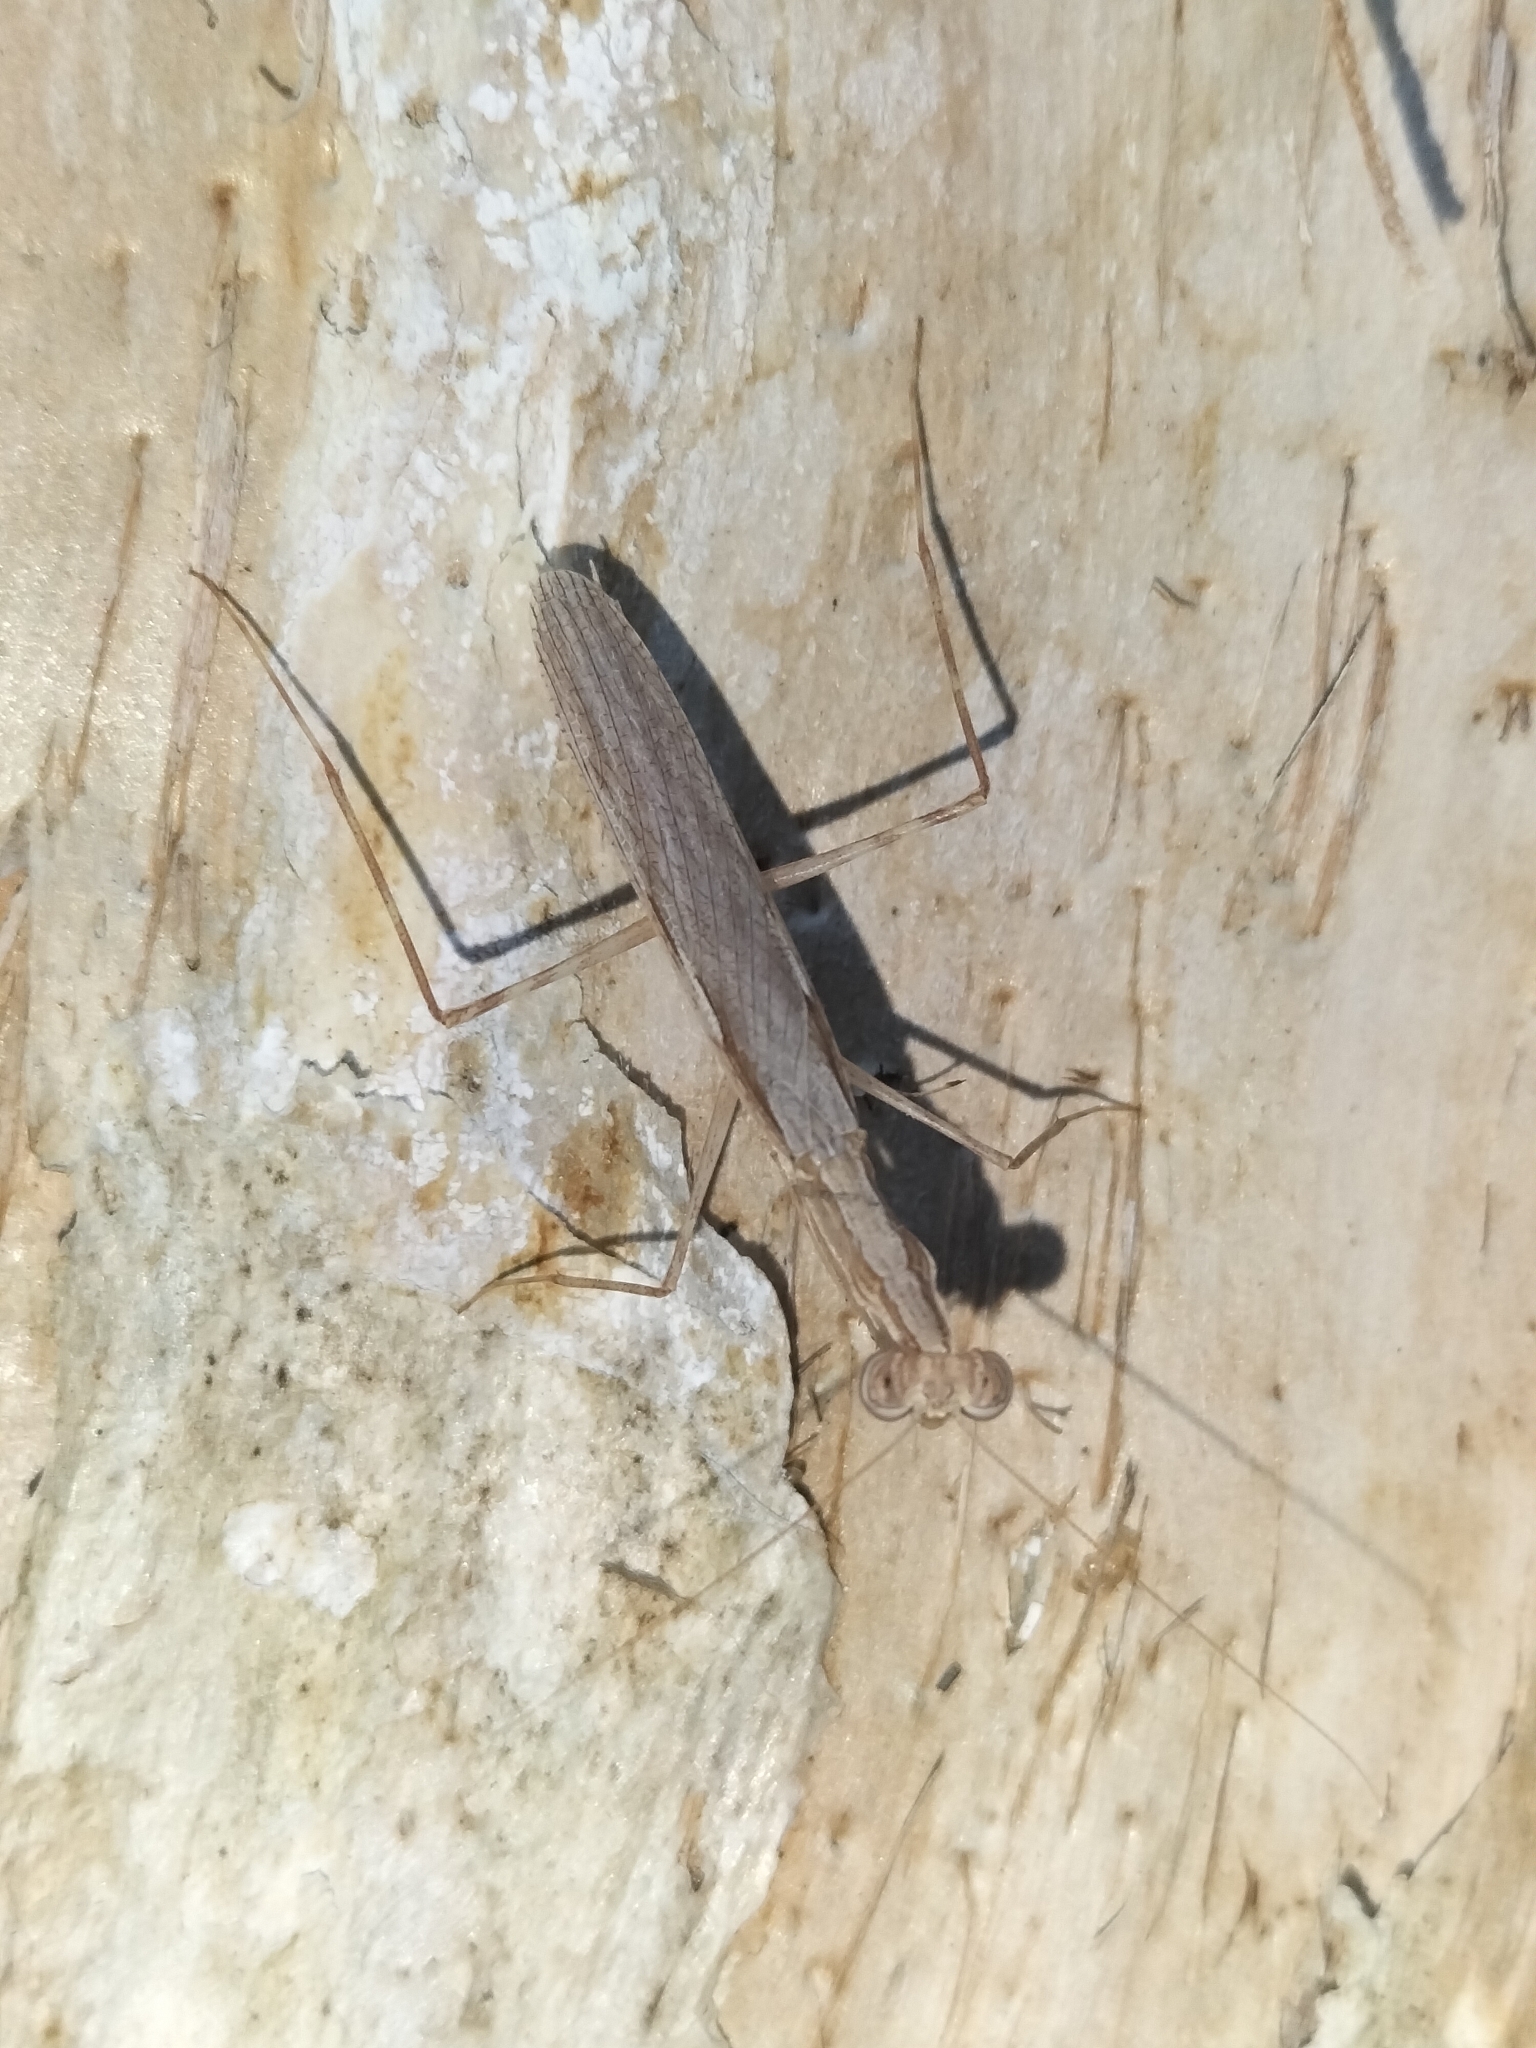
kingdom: Animalia
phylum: Arthropoda
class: Insecta
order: Mantodea
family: Nanomantidae
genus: Ima
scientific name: Ima fusca
